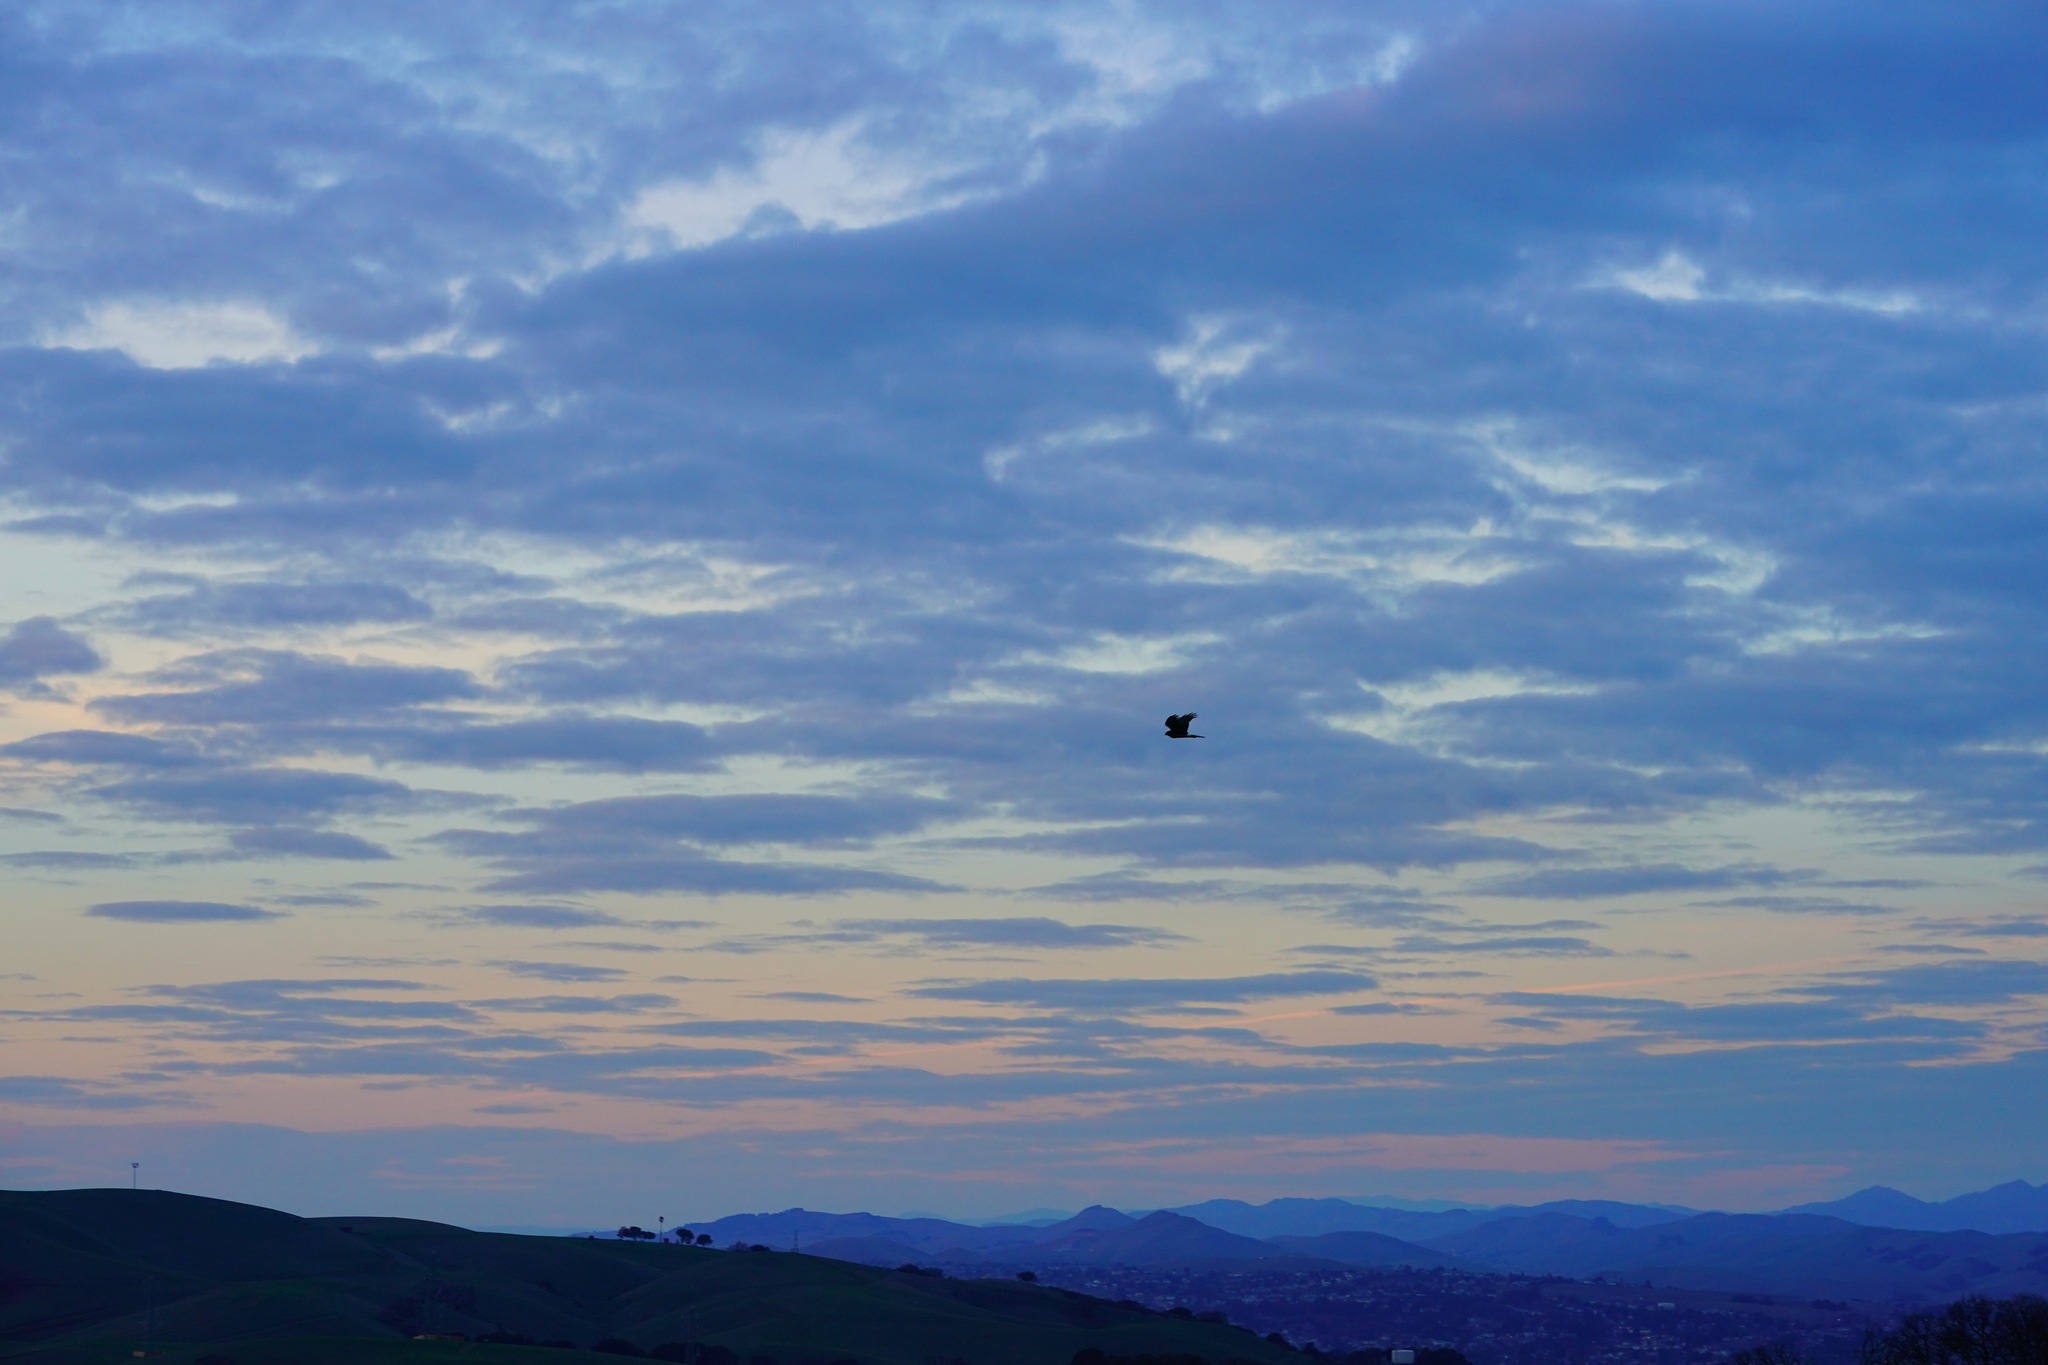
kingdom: Animalia
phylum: Chordata
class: Aves
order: Accipitriformes
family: Accipitridae
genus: Circus
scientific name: Circus cyaneus
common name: Hen harrier
